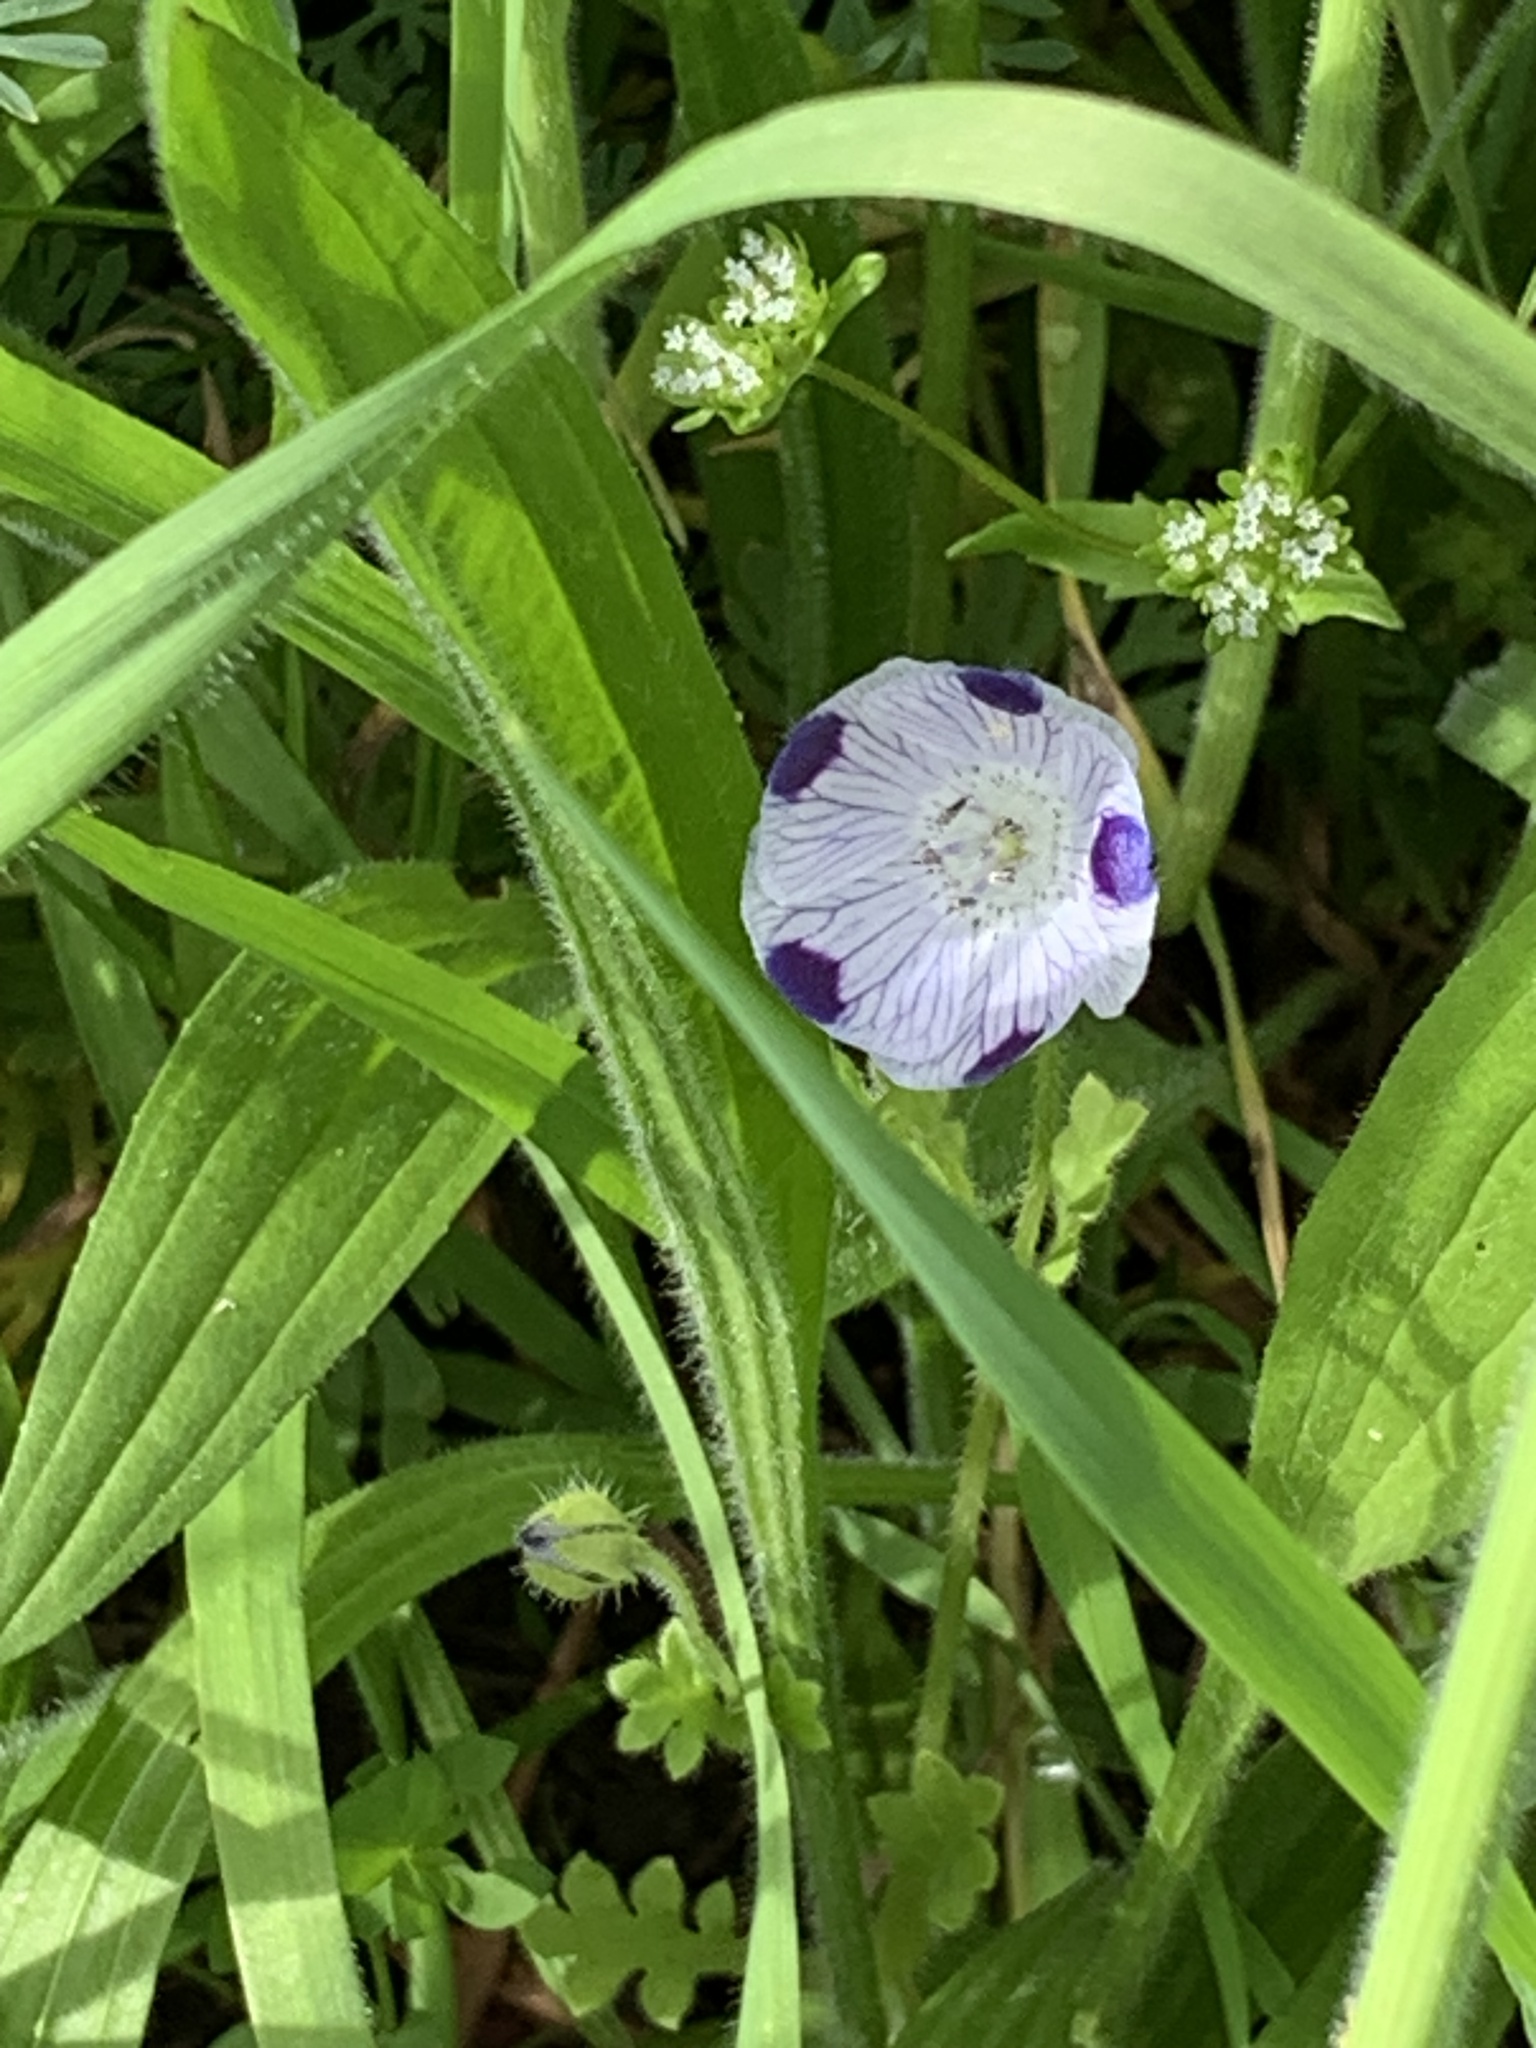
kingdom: Plantae
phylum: Tracheophyta
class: Magnoliopsida
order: Boraginales
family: Hydrophyllaceae
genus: Nemophila
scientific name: Nemophila maculata
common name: Fivespot
